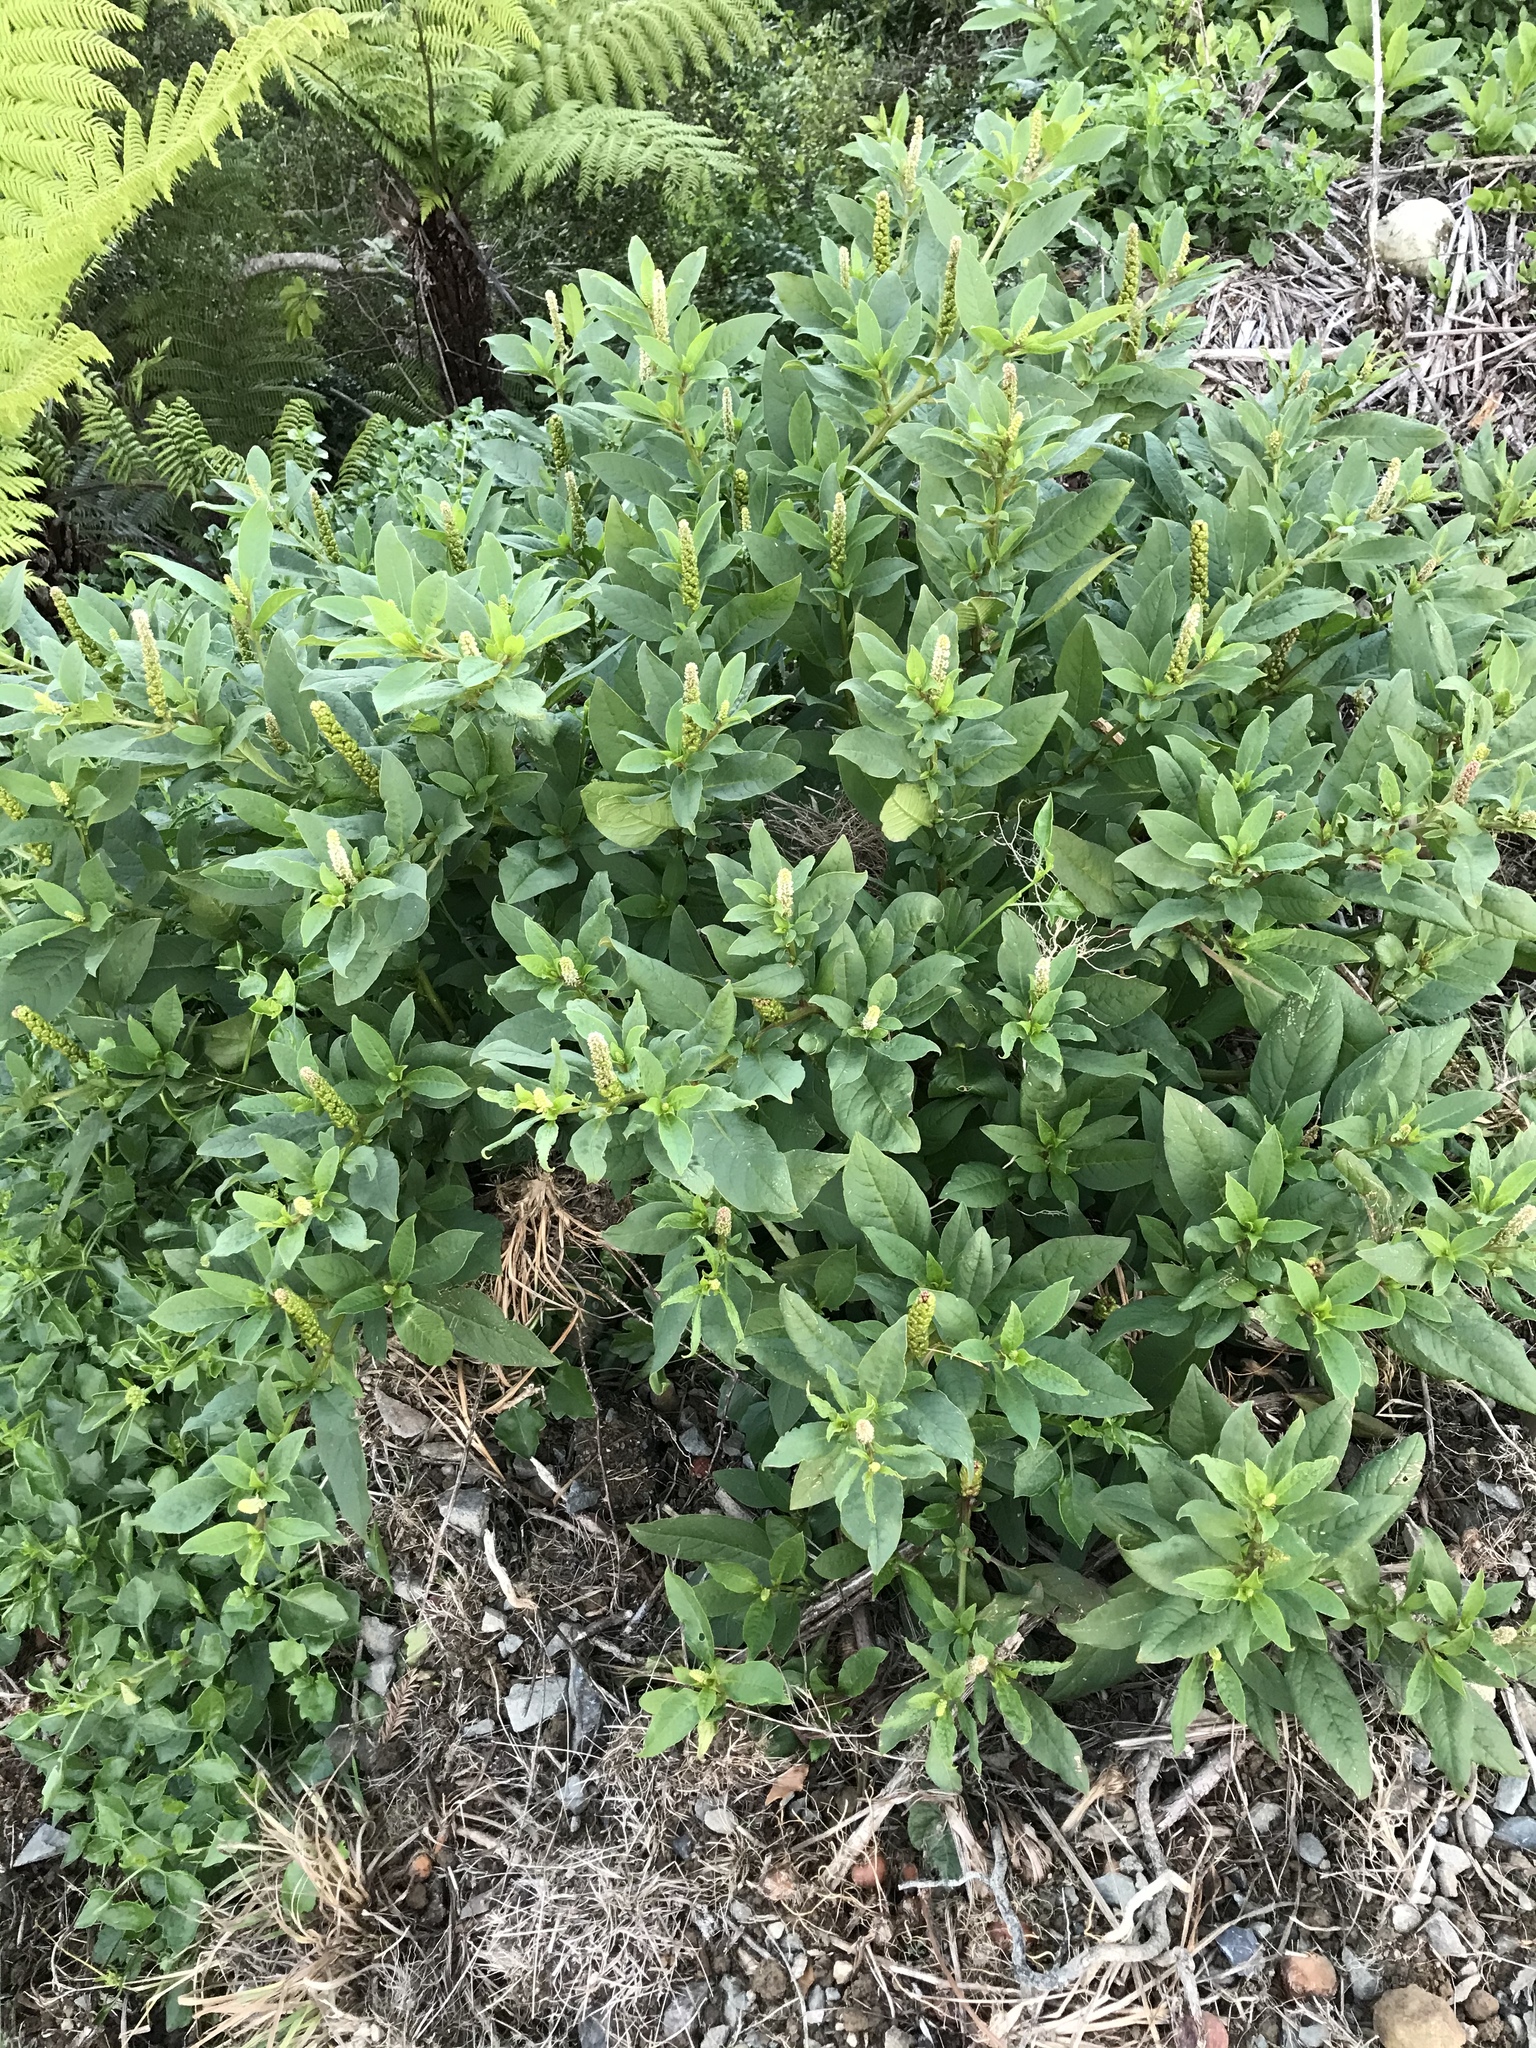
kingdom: Plantae
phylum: Tracheophyta
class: Magnoliopsida
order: Caryophyllales
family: Phytolaccaceae
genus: Phytolacca
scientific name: Phytolacca icosandra
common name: Button pokeweed
